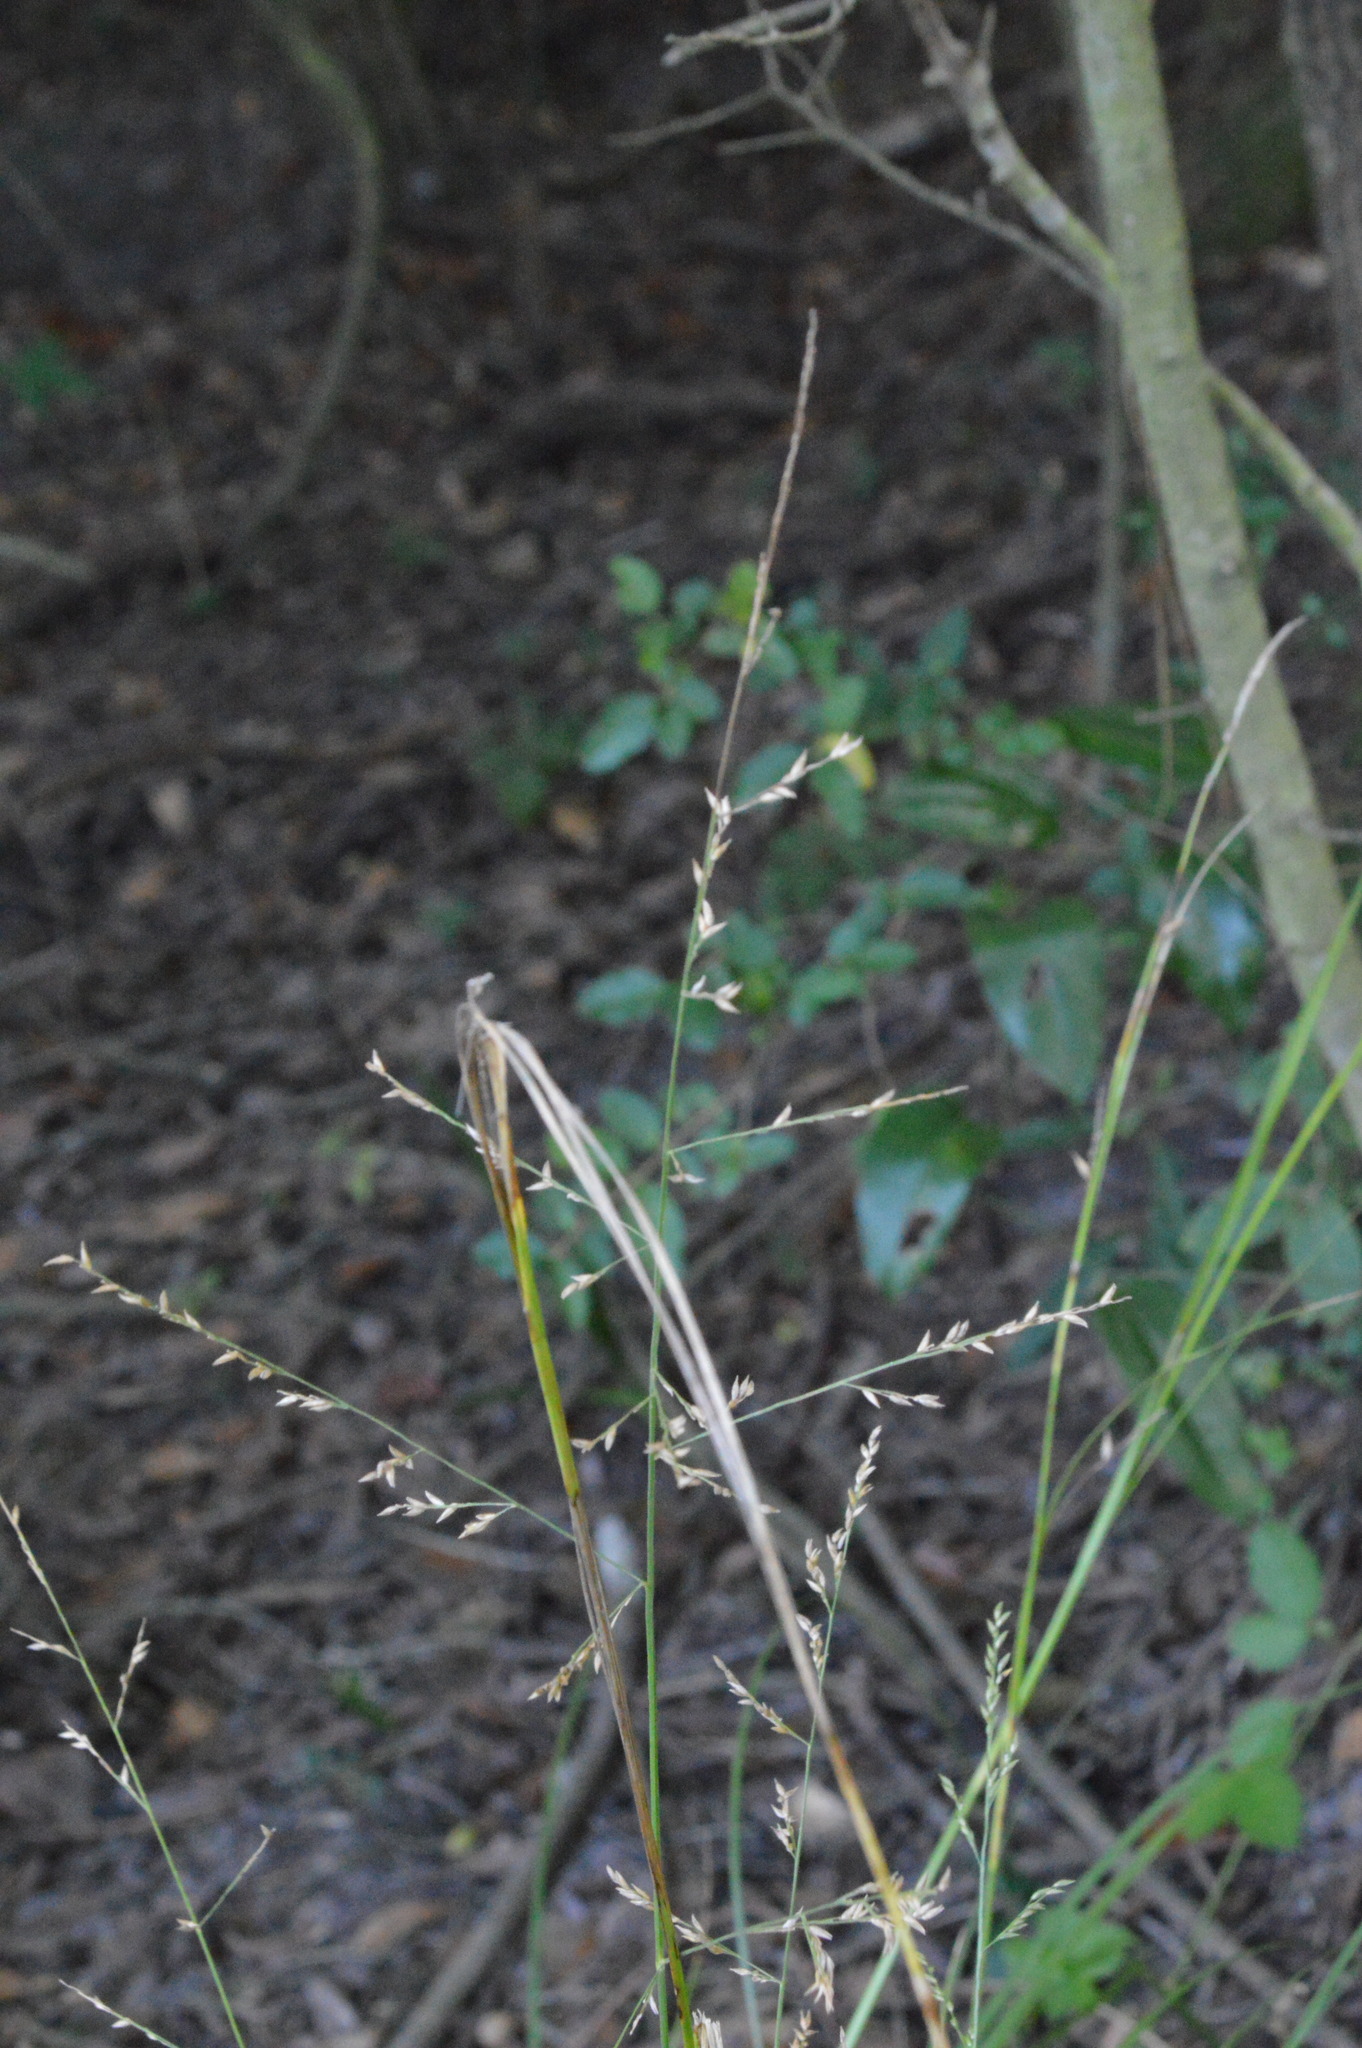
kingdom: Plantae
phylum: Tracheophyta
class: Liliopsida
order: Poales
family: Poaceae
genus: Coleataenia
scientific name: Coleataenia anceps
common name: Beaked panic grass
